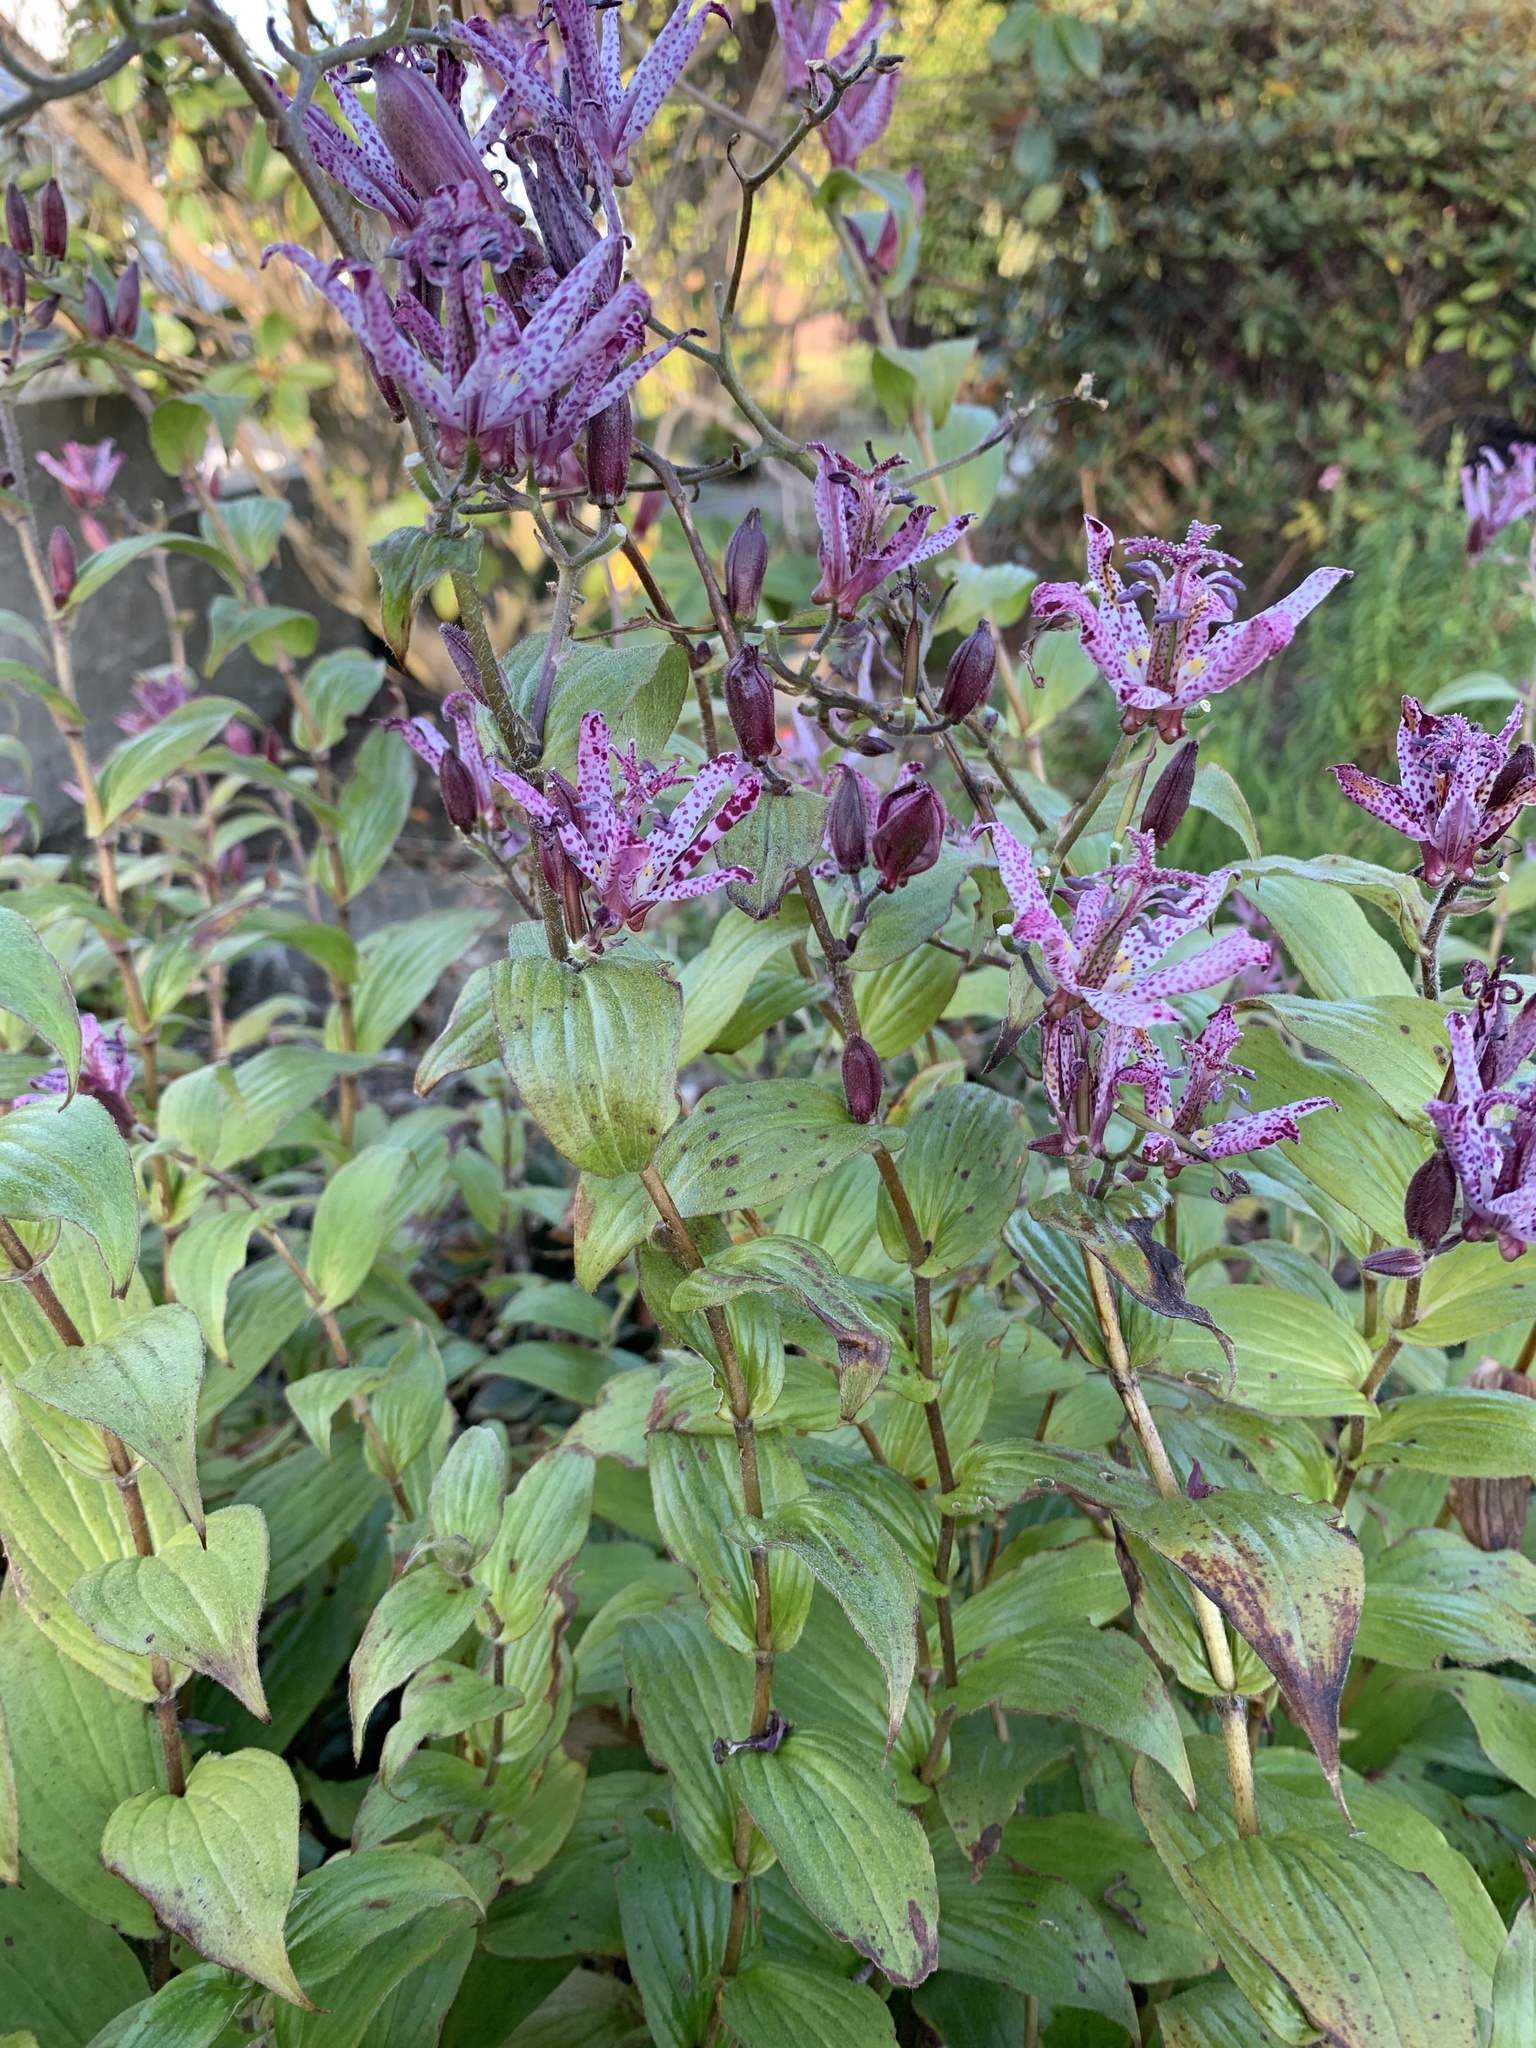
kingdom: Plantae
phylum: Tracheophyta
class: Liliopsida
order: Liliales
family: Liliaceae
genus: Tricyrtis
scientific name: Tricyrtis formosana
